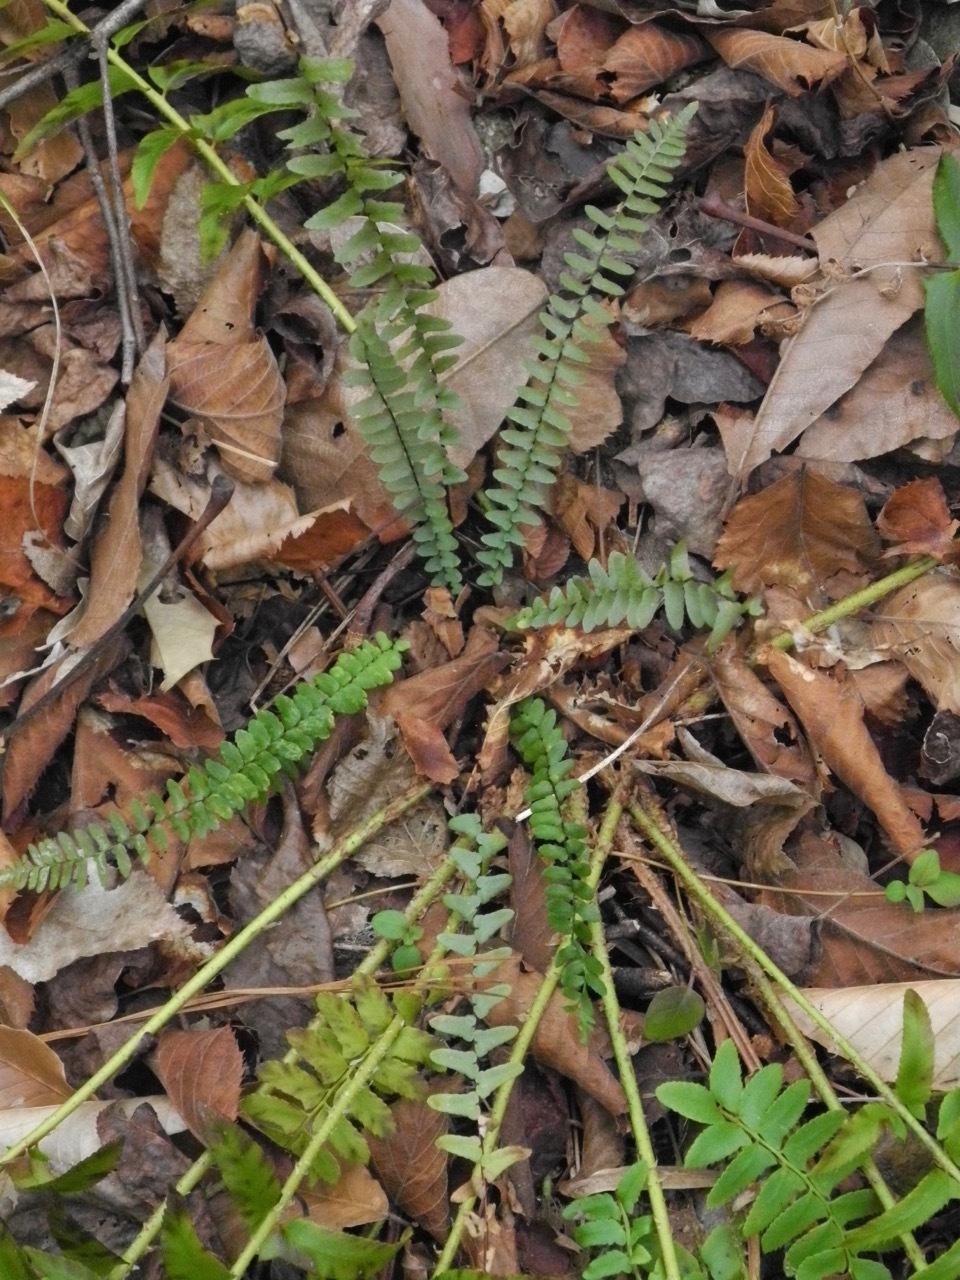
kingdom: Plantae
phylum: Tracheophyta
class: Polypodiopsida
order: Polypodiales
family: Aspleniaceae
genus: Asplenium
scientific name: Asplenium platyneuron
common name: Ebony spleenwort
